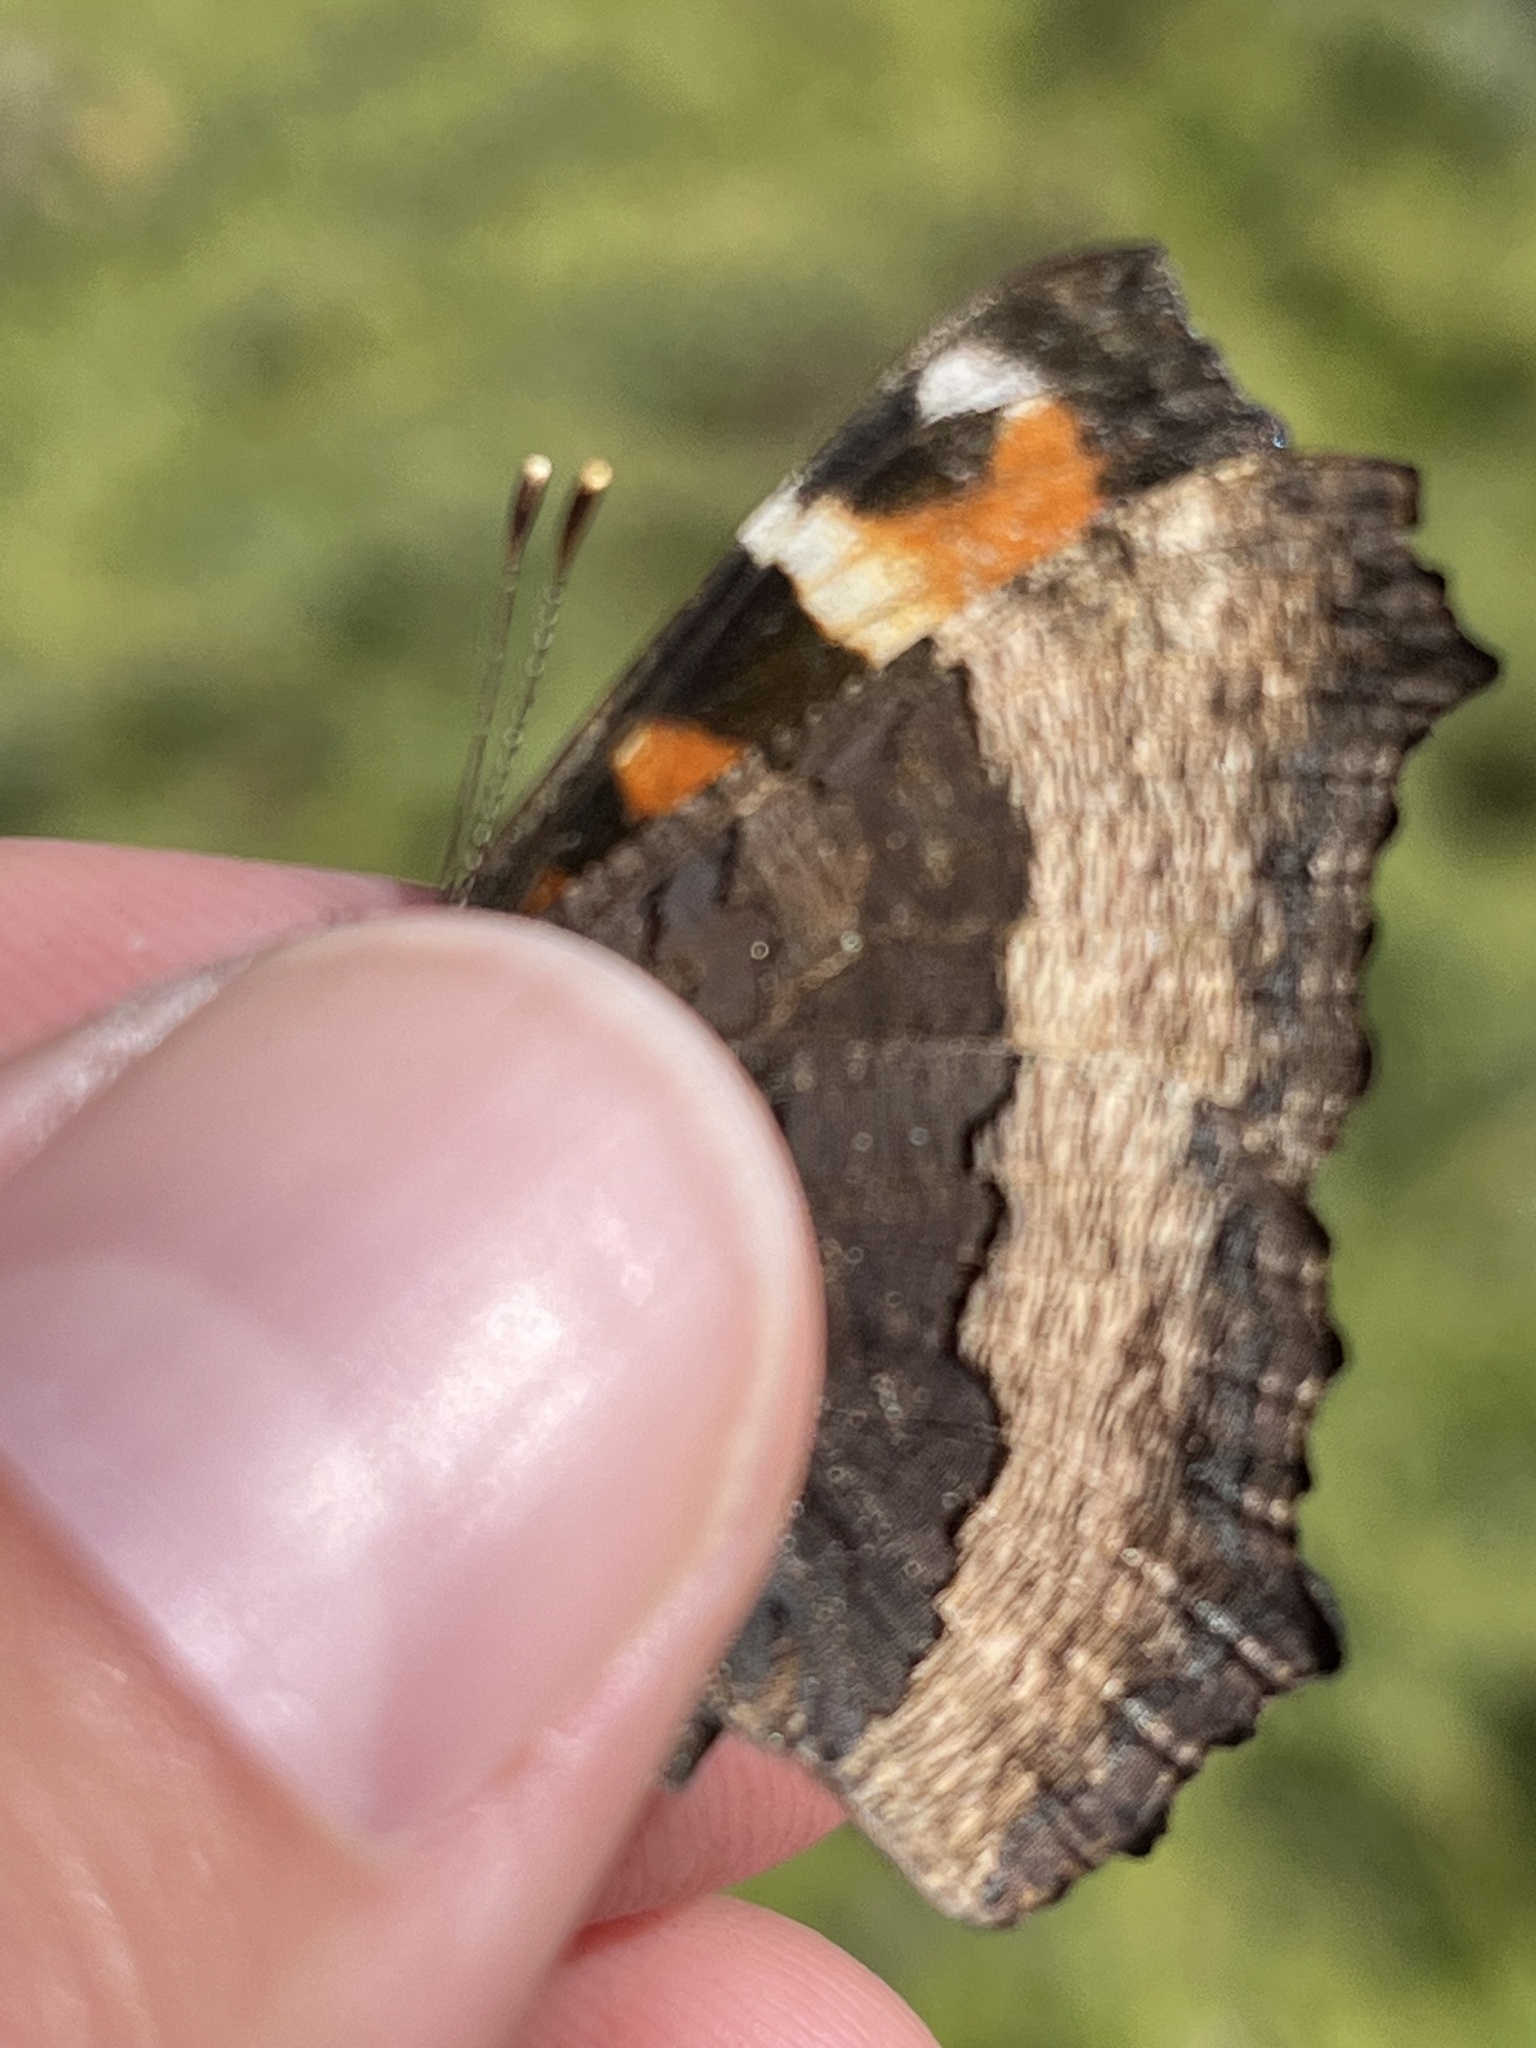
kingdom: Animalia
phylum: Arthropoda
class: Insecta
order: Lepidoptera
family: Nymphalidae
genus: Aglais
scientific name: Aglais milberti
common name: Milbert's tortoiseshell
